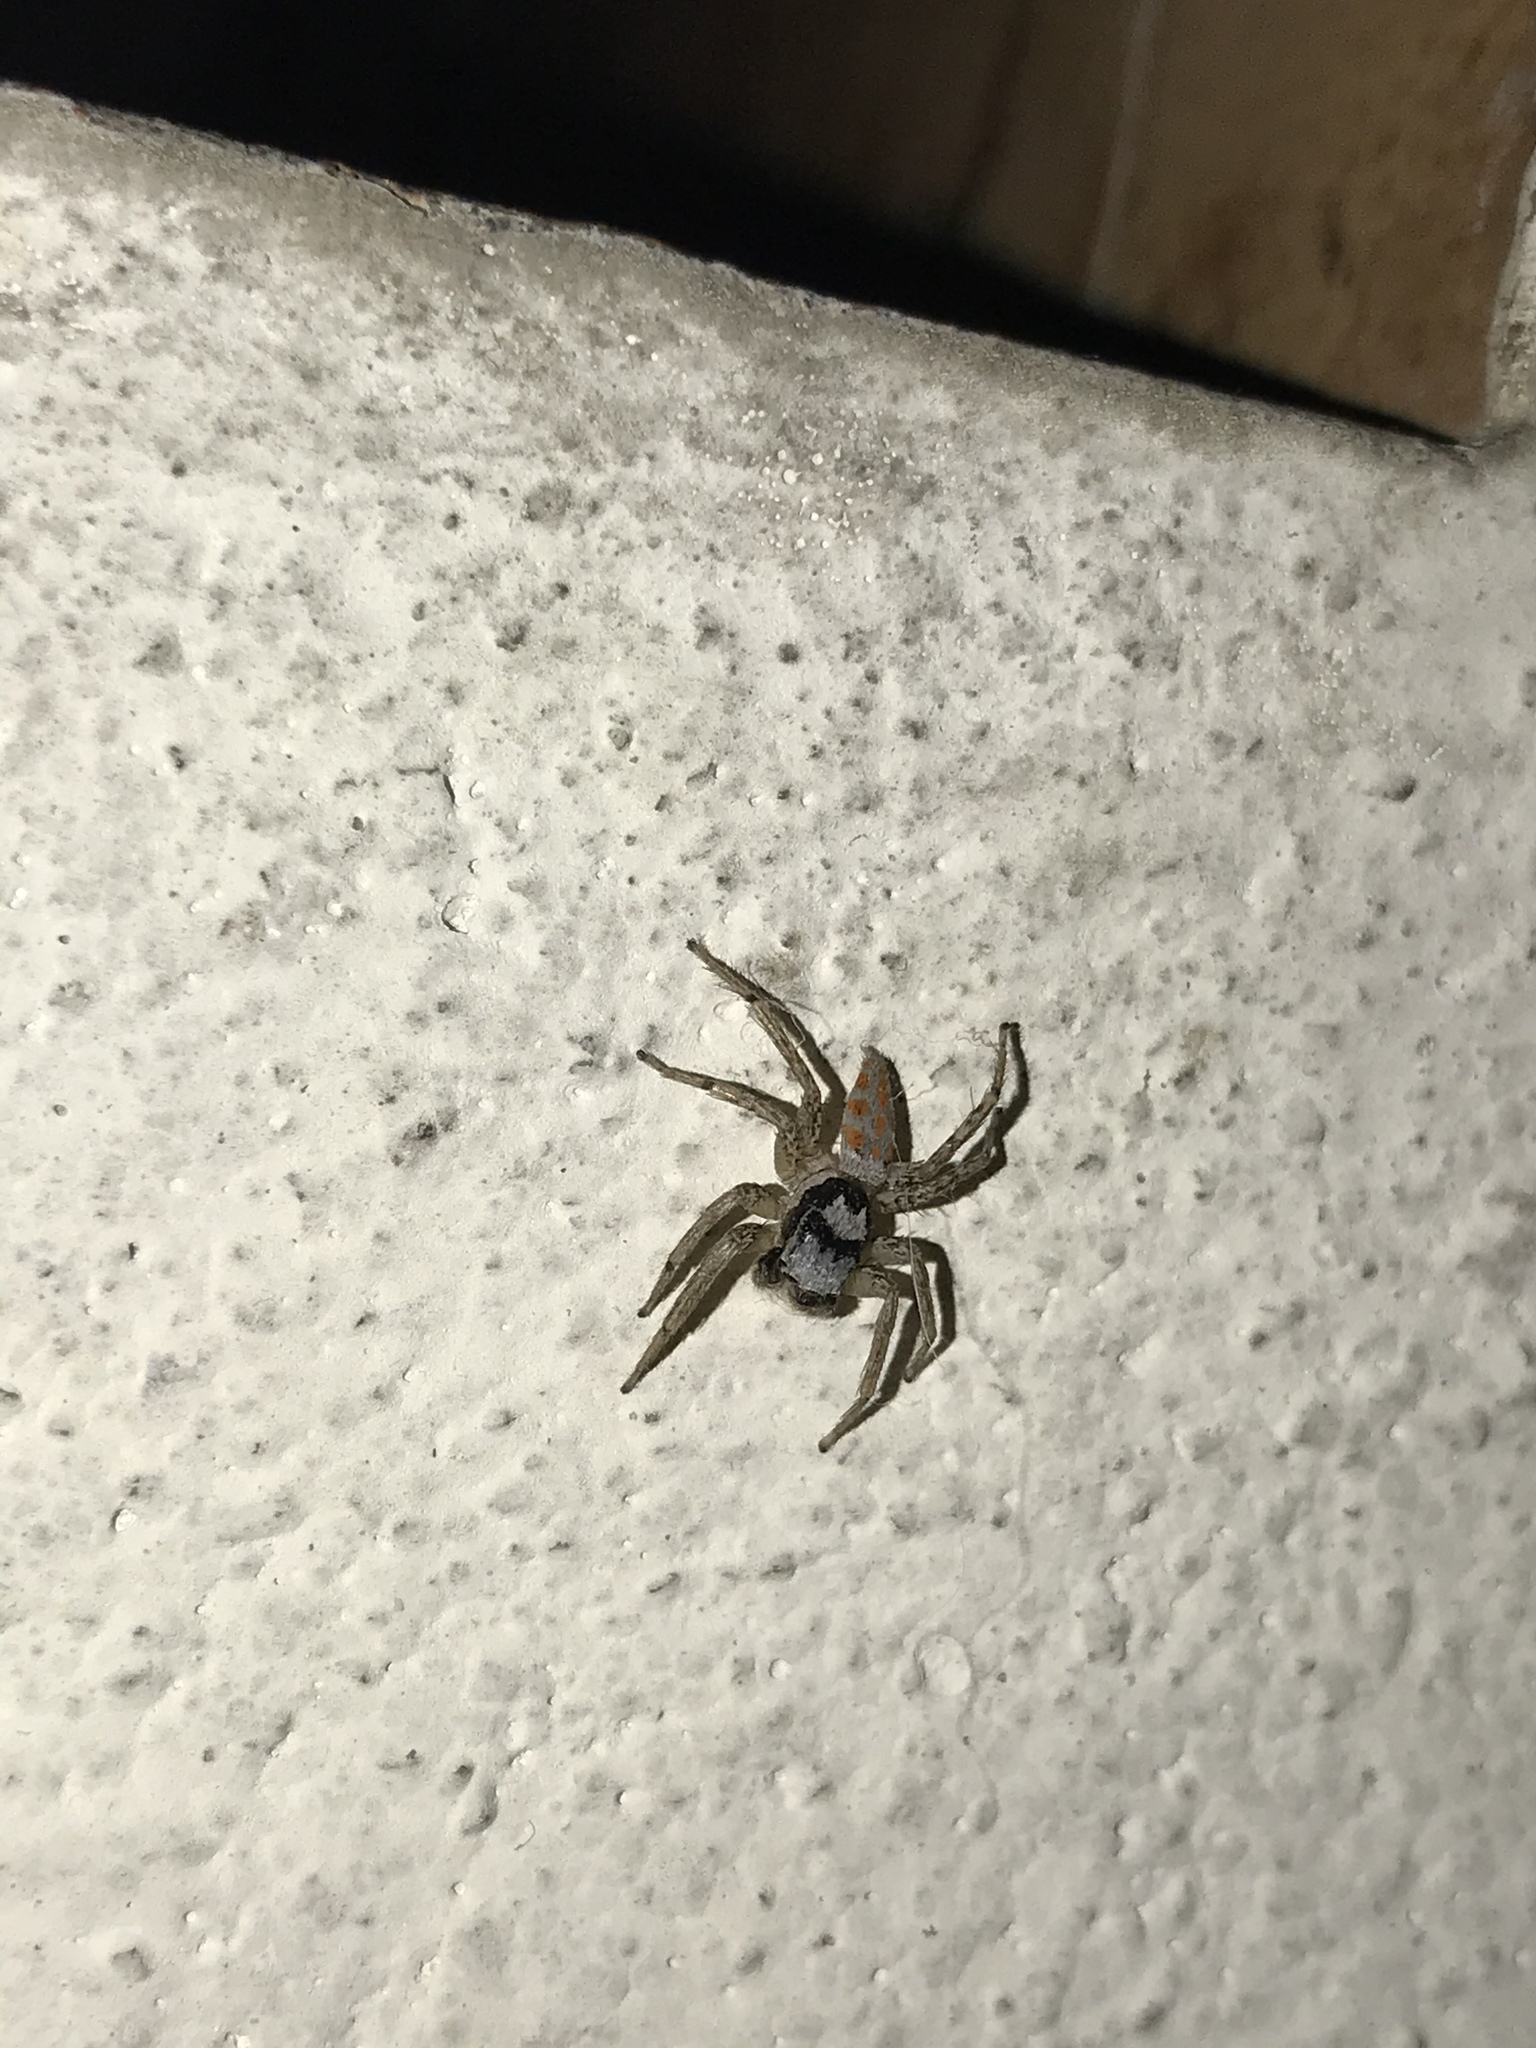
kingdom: Animalia
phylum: Arthropoda
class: Arachnida
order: Araneae
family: Salticidae
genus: Paramaevia
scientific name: Paramaevia poultoni
